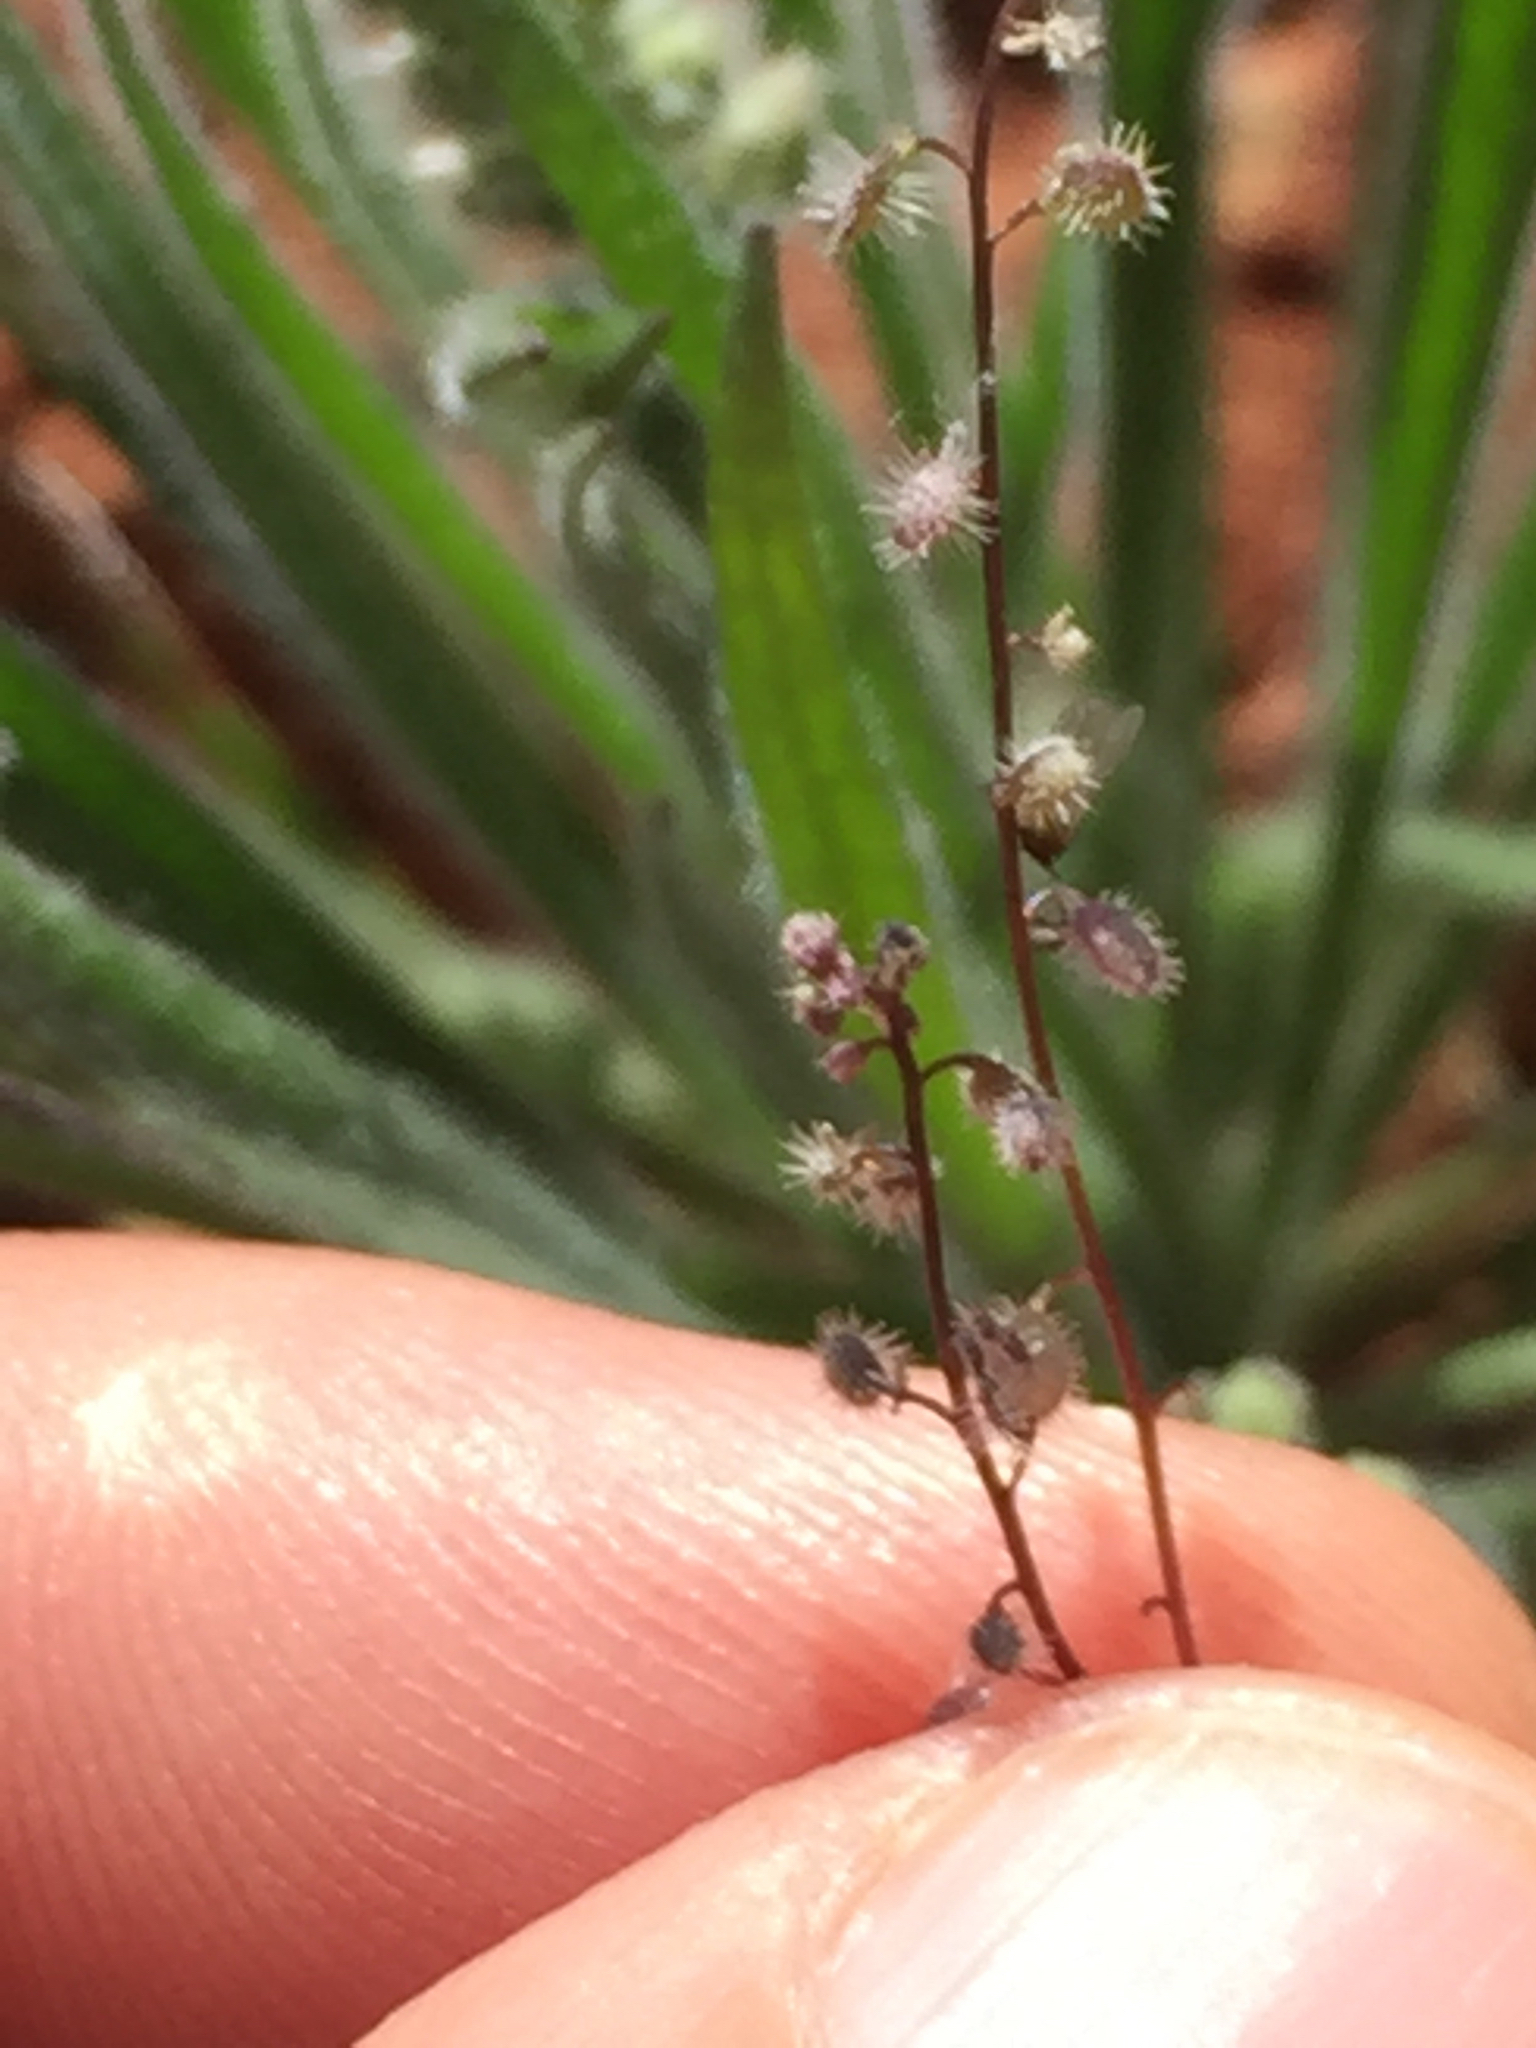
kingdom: Plantae
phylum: Tracheophyta
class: Magnoliopsida
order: Brassicales
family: Brassicaceae
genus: Athysanus
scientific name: Athysanus pusillus
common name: Common sandweed
